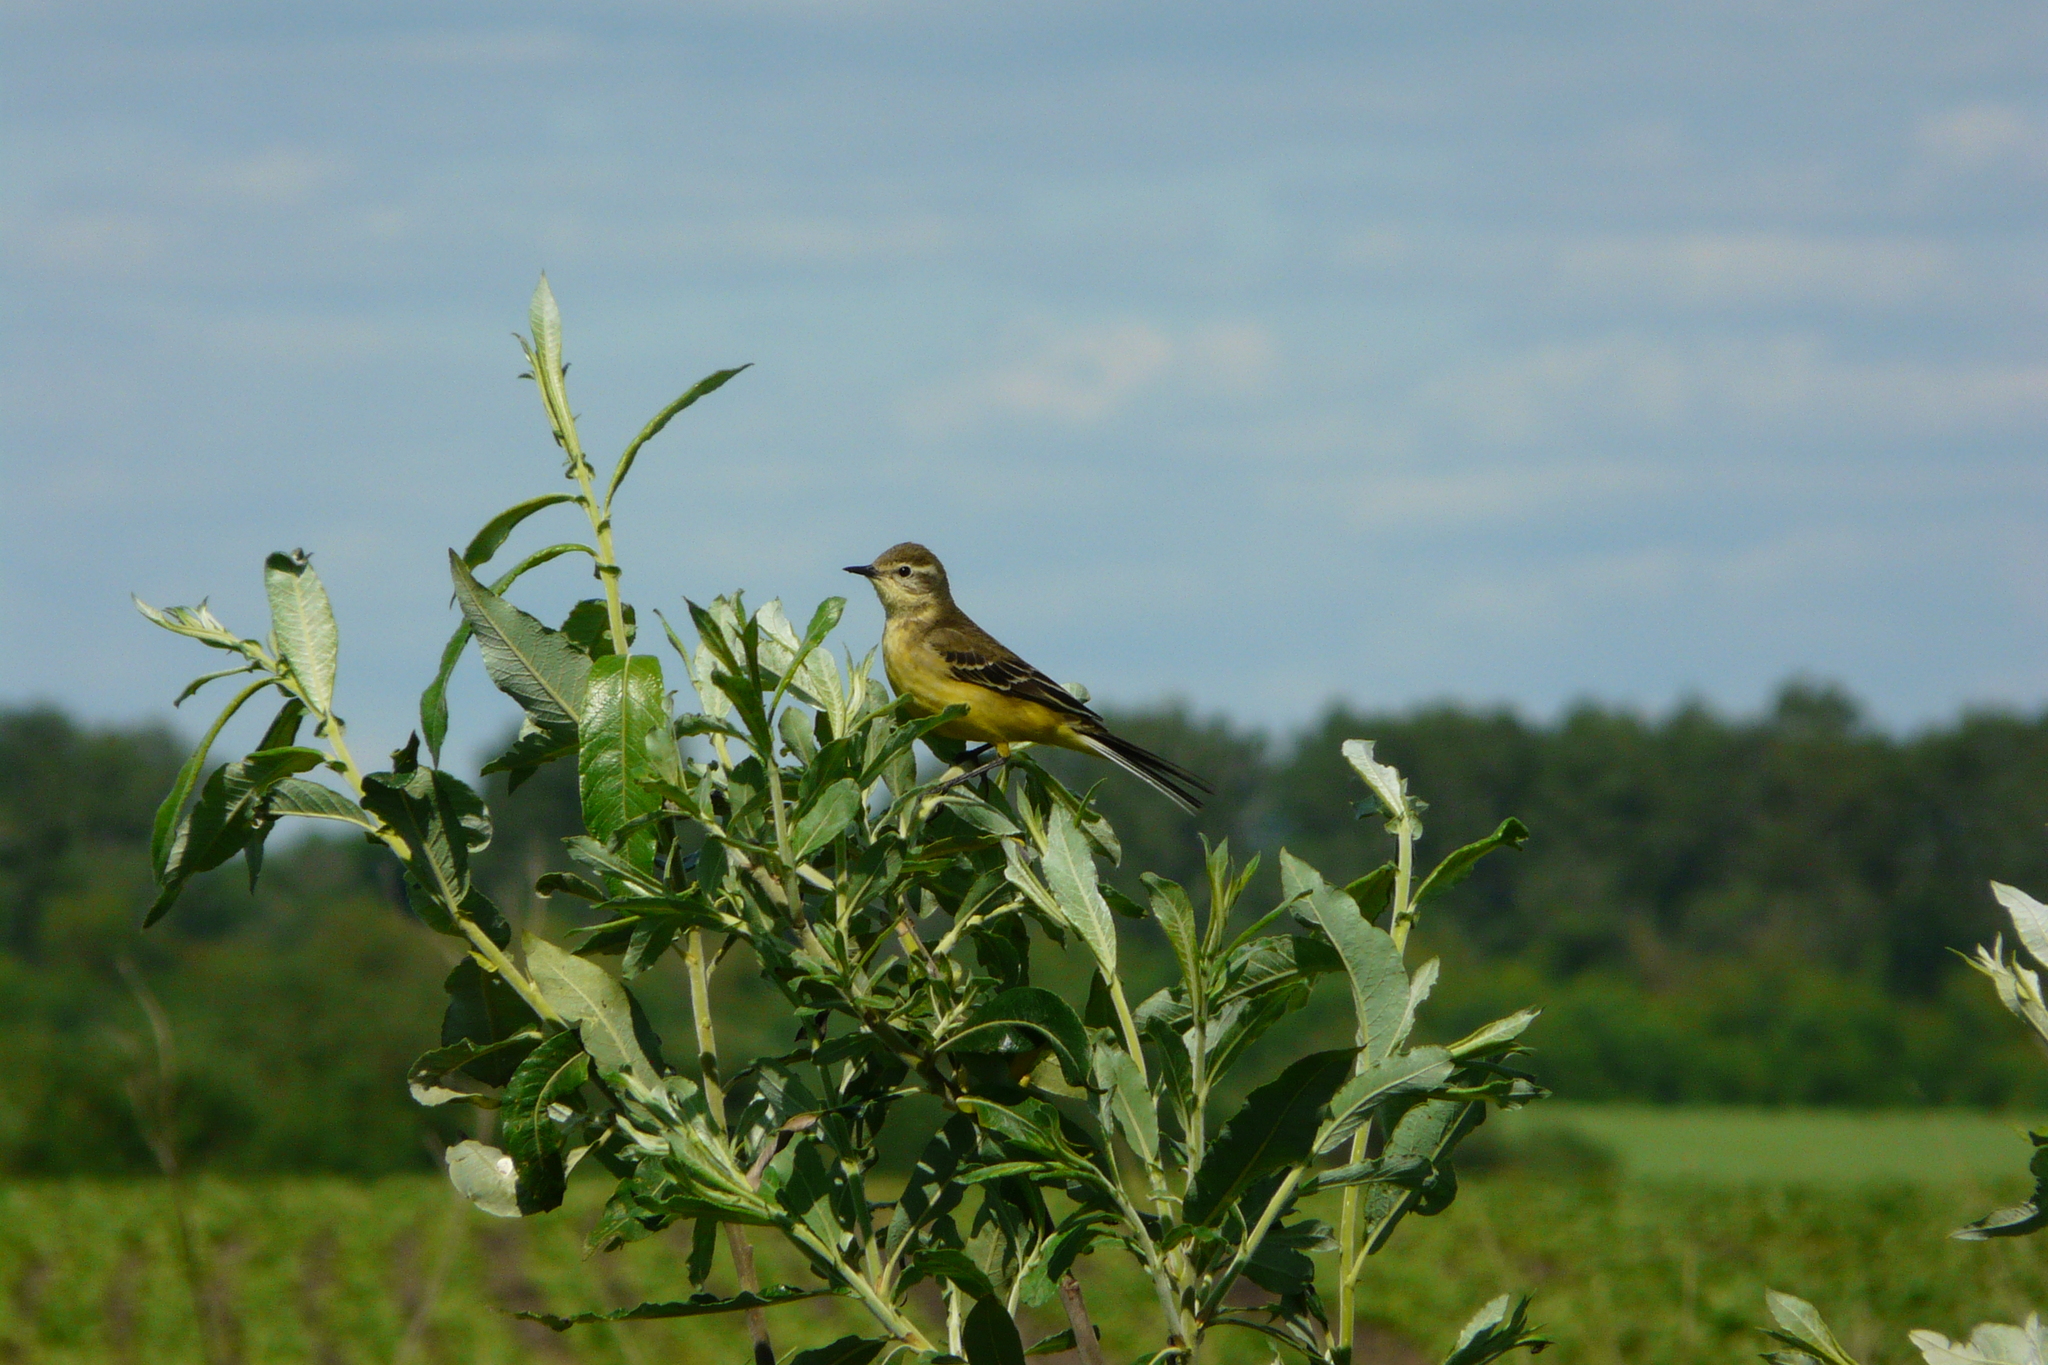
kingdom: Animalia
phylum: Chordata
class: Aves
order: Passeriformes
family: Motacillidae
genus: Motacilla
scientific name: Motacilla flava
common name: Western yellow wagtail
